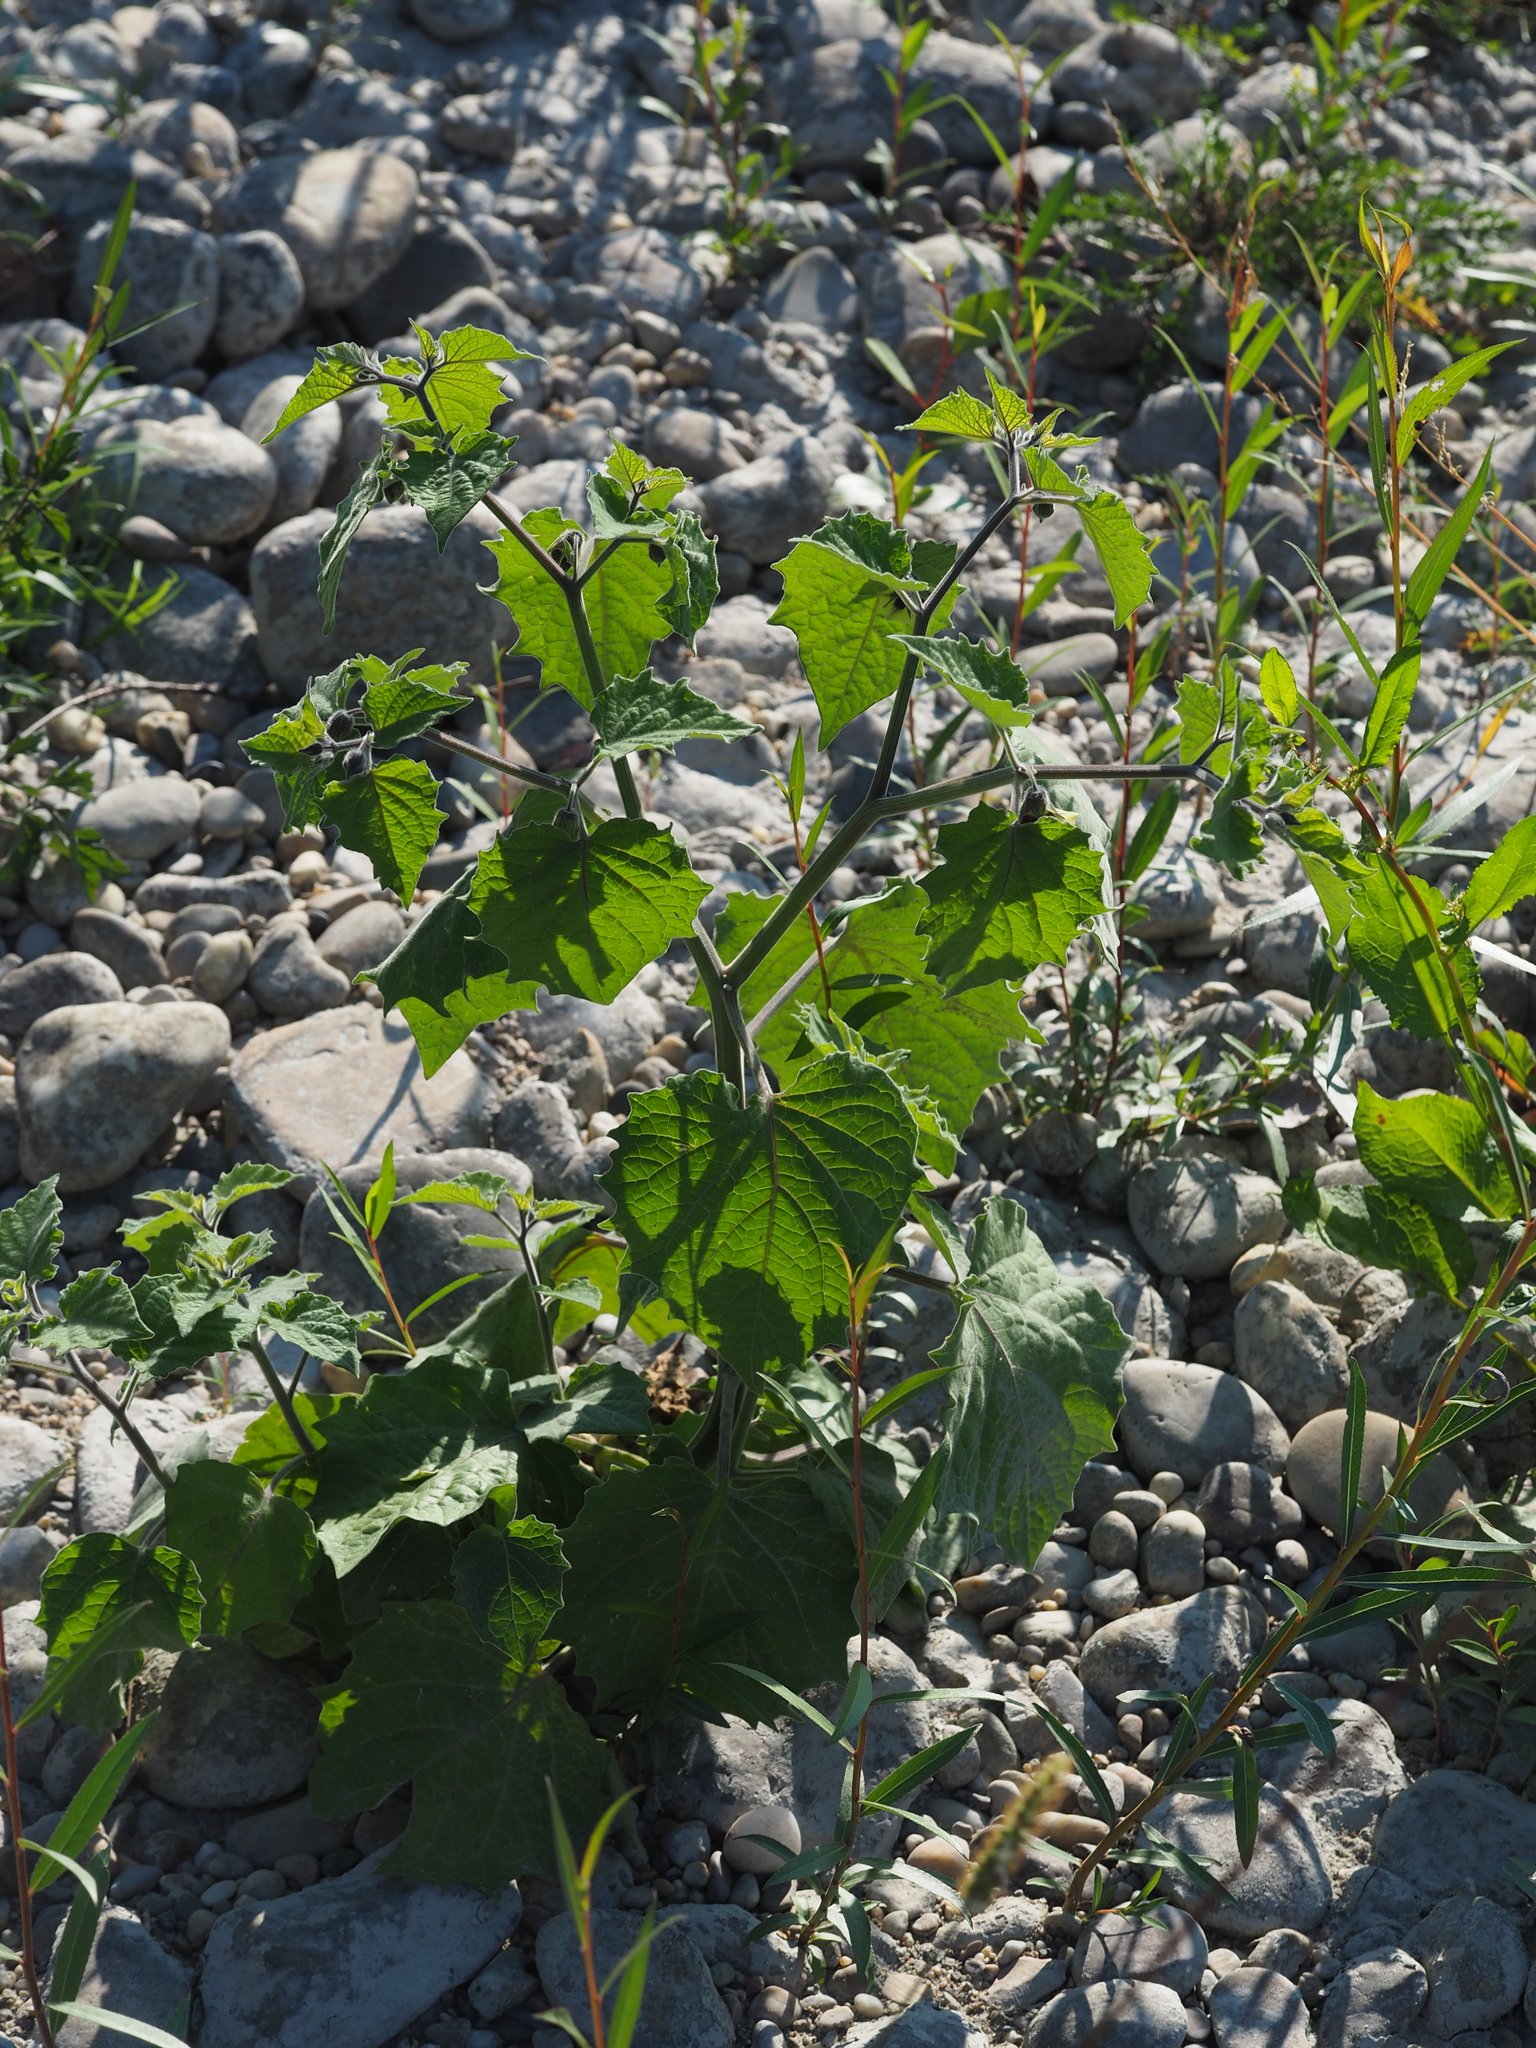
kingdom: Plantae
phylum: Tracheophyta
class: Magnoliopsida
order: Solanales
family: Solanaceae
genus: Physalis
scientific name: Physalis peruviana
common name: Cape-gooseberry
